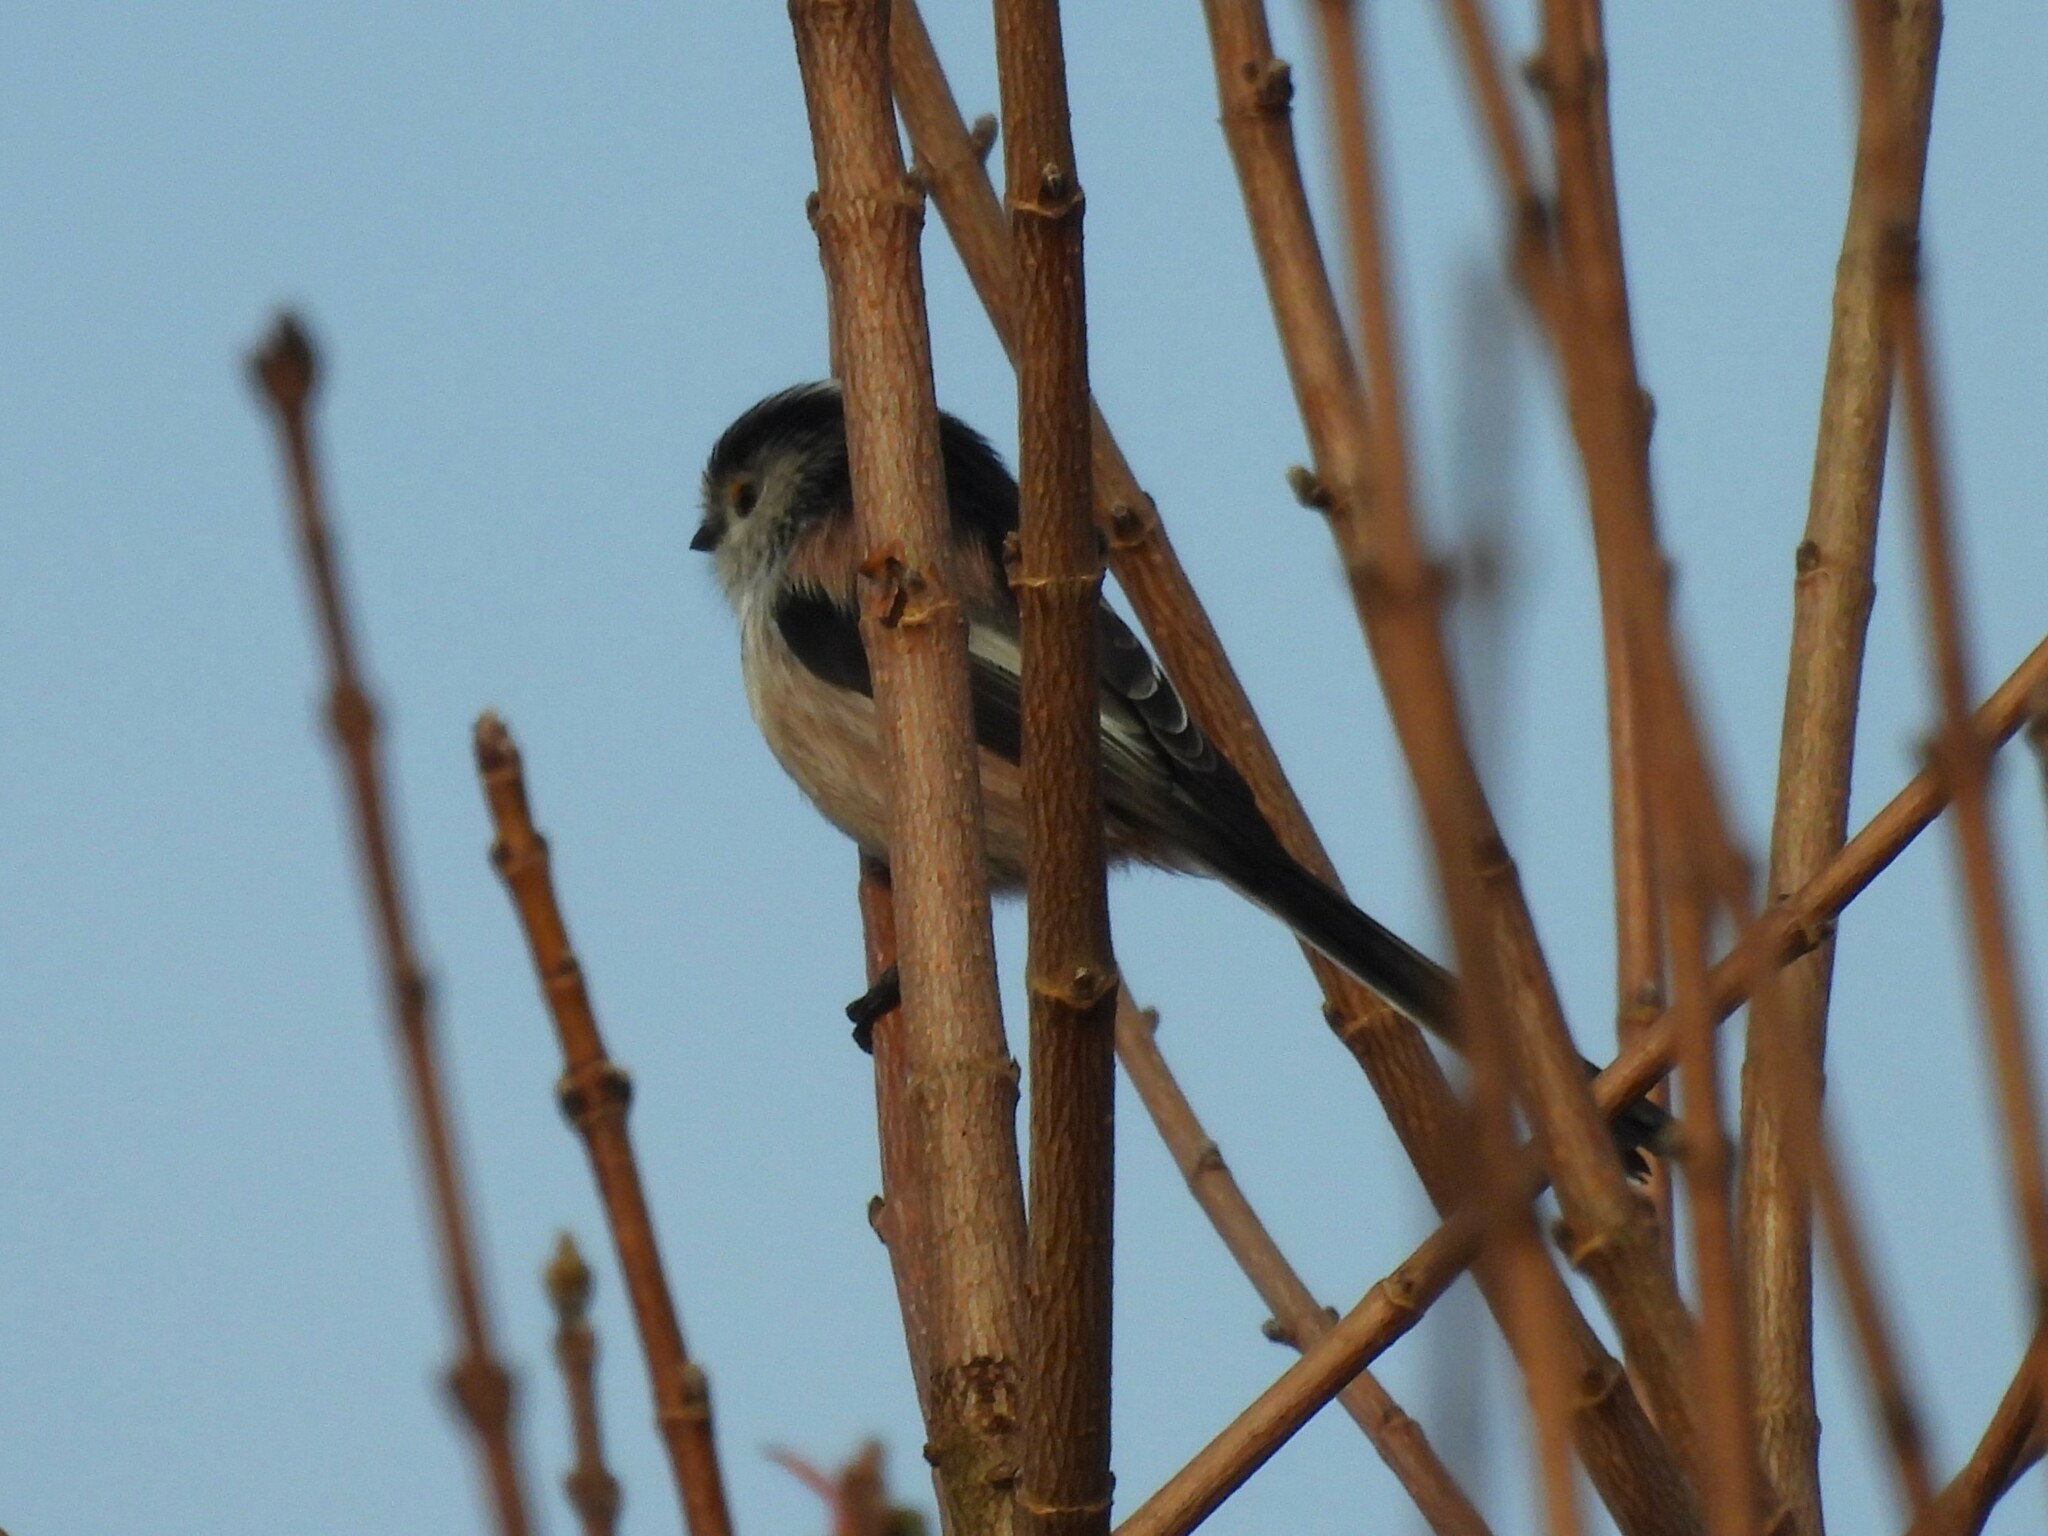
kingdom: Animalia
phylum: Chordata
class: Aves
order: Passeriformes
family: Aegithalidae
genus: Aegithalos
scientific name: Aegithalos caudatus
